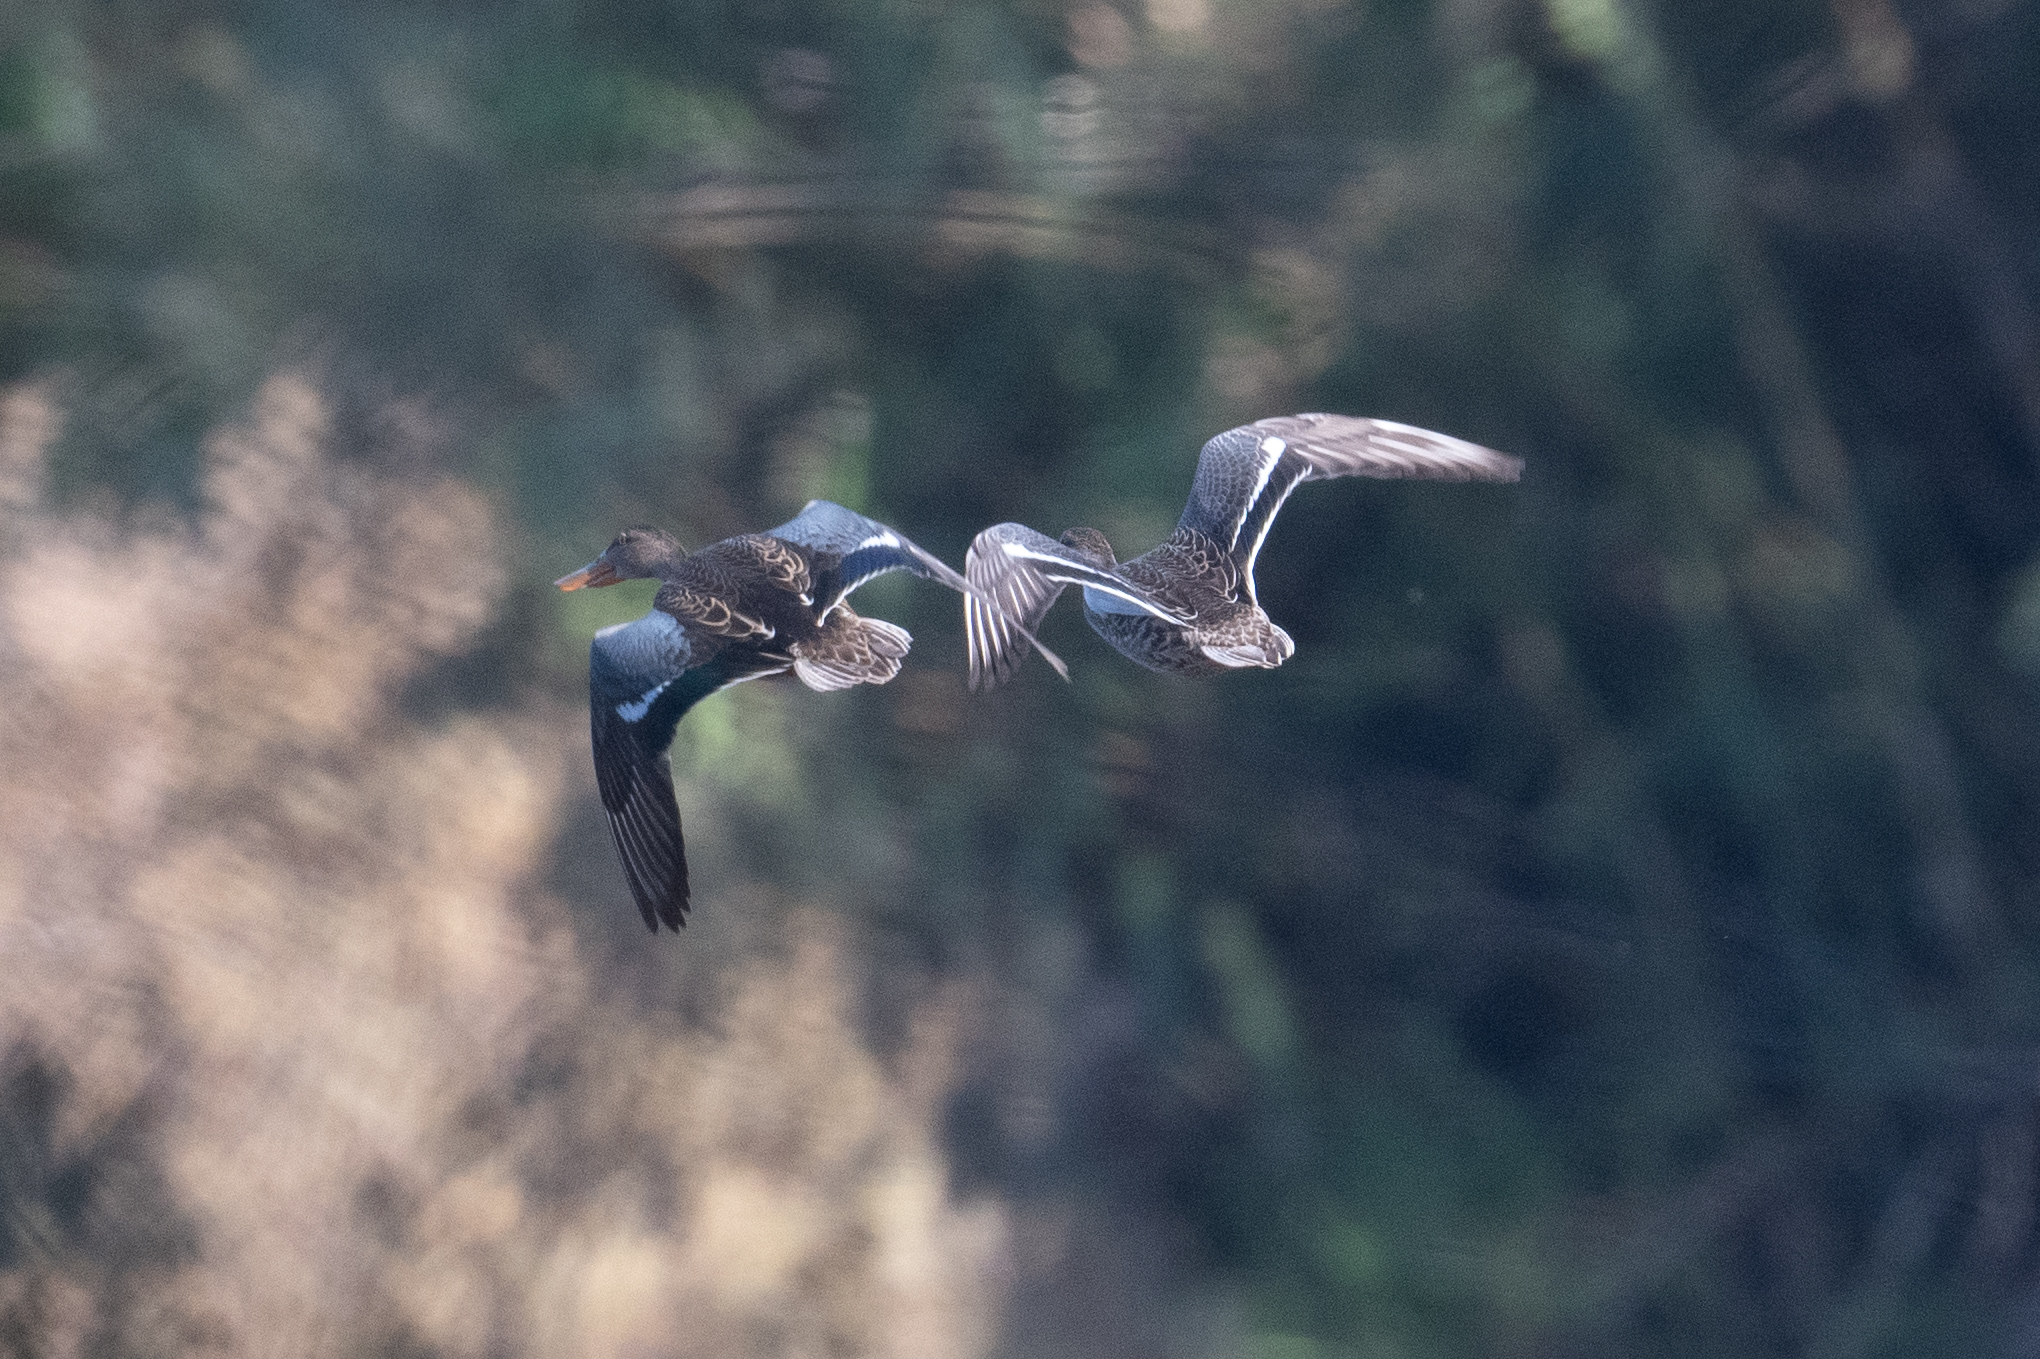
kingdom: Animalia
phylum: Chordata
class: Aves
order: Anseriformes
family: Anatidae
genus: Spatula
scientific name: Spatula clypeata
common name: Northern shoveler
